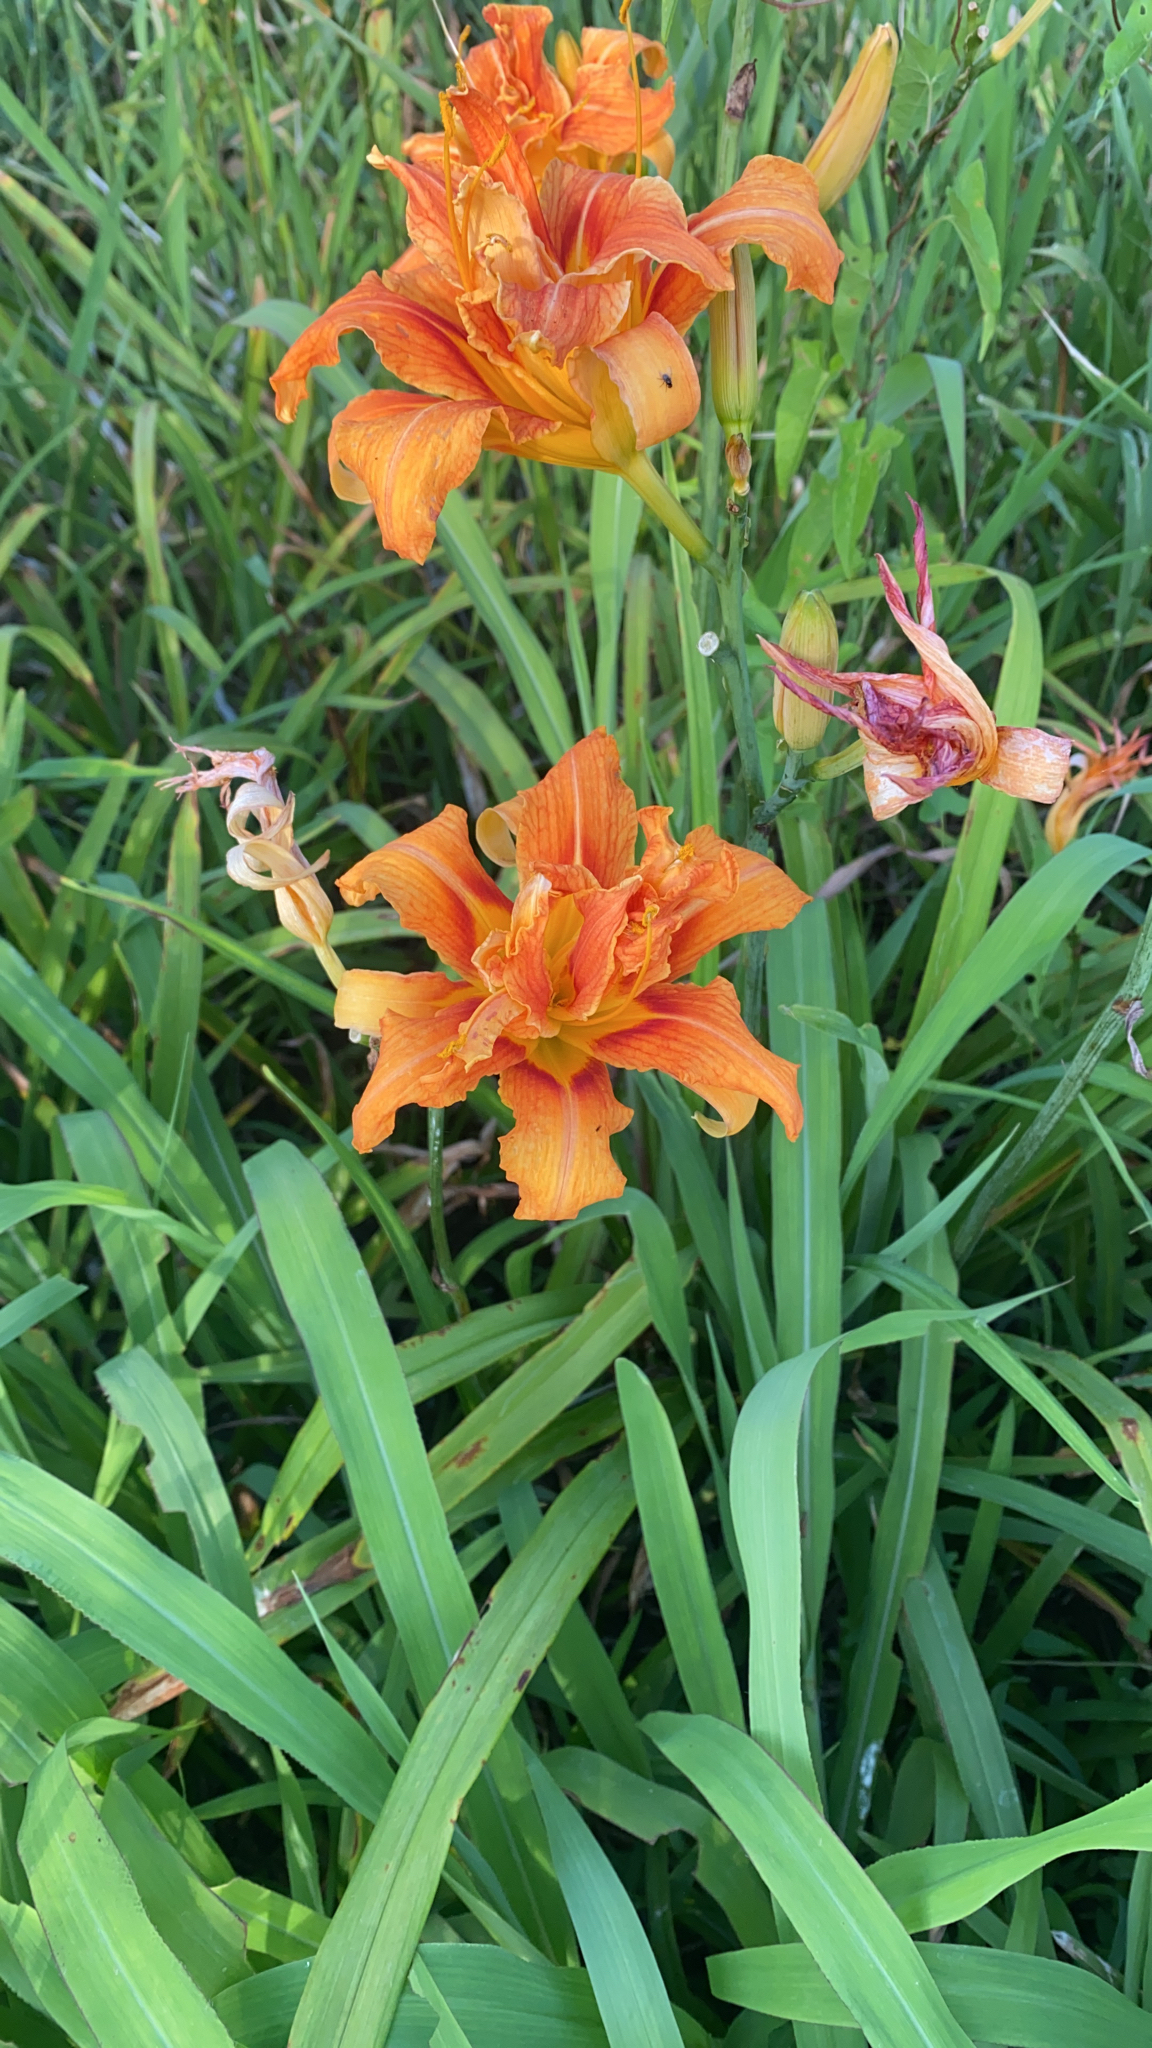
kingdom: Plantae
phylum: Tracheophyta
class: Liliopsida
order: Asparagales
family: Asphodelaceae
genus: Hemerocallis
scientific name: Hemerocallis fulva
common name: Orange day-lily
